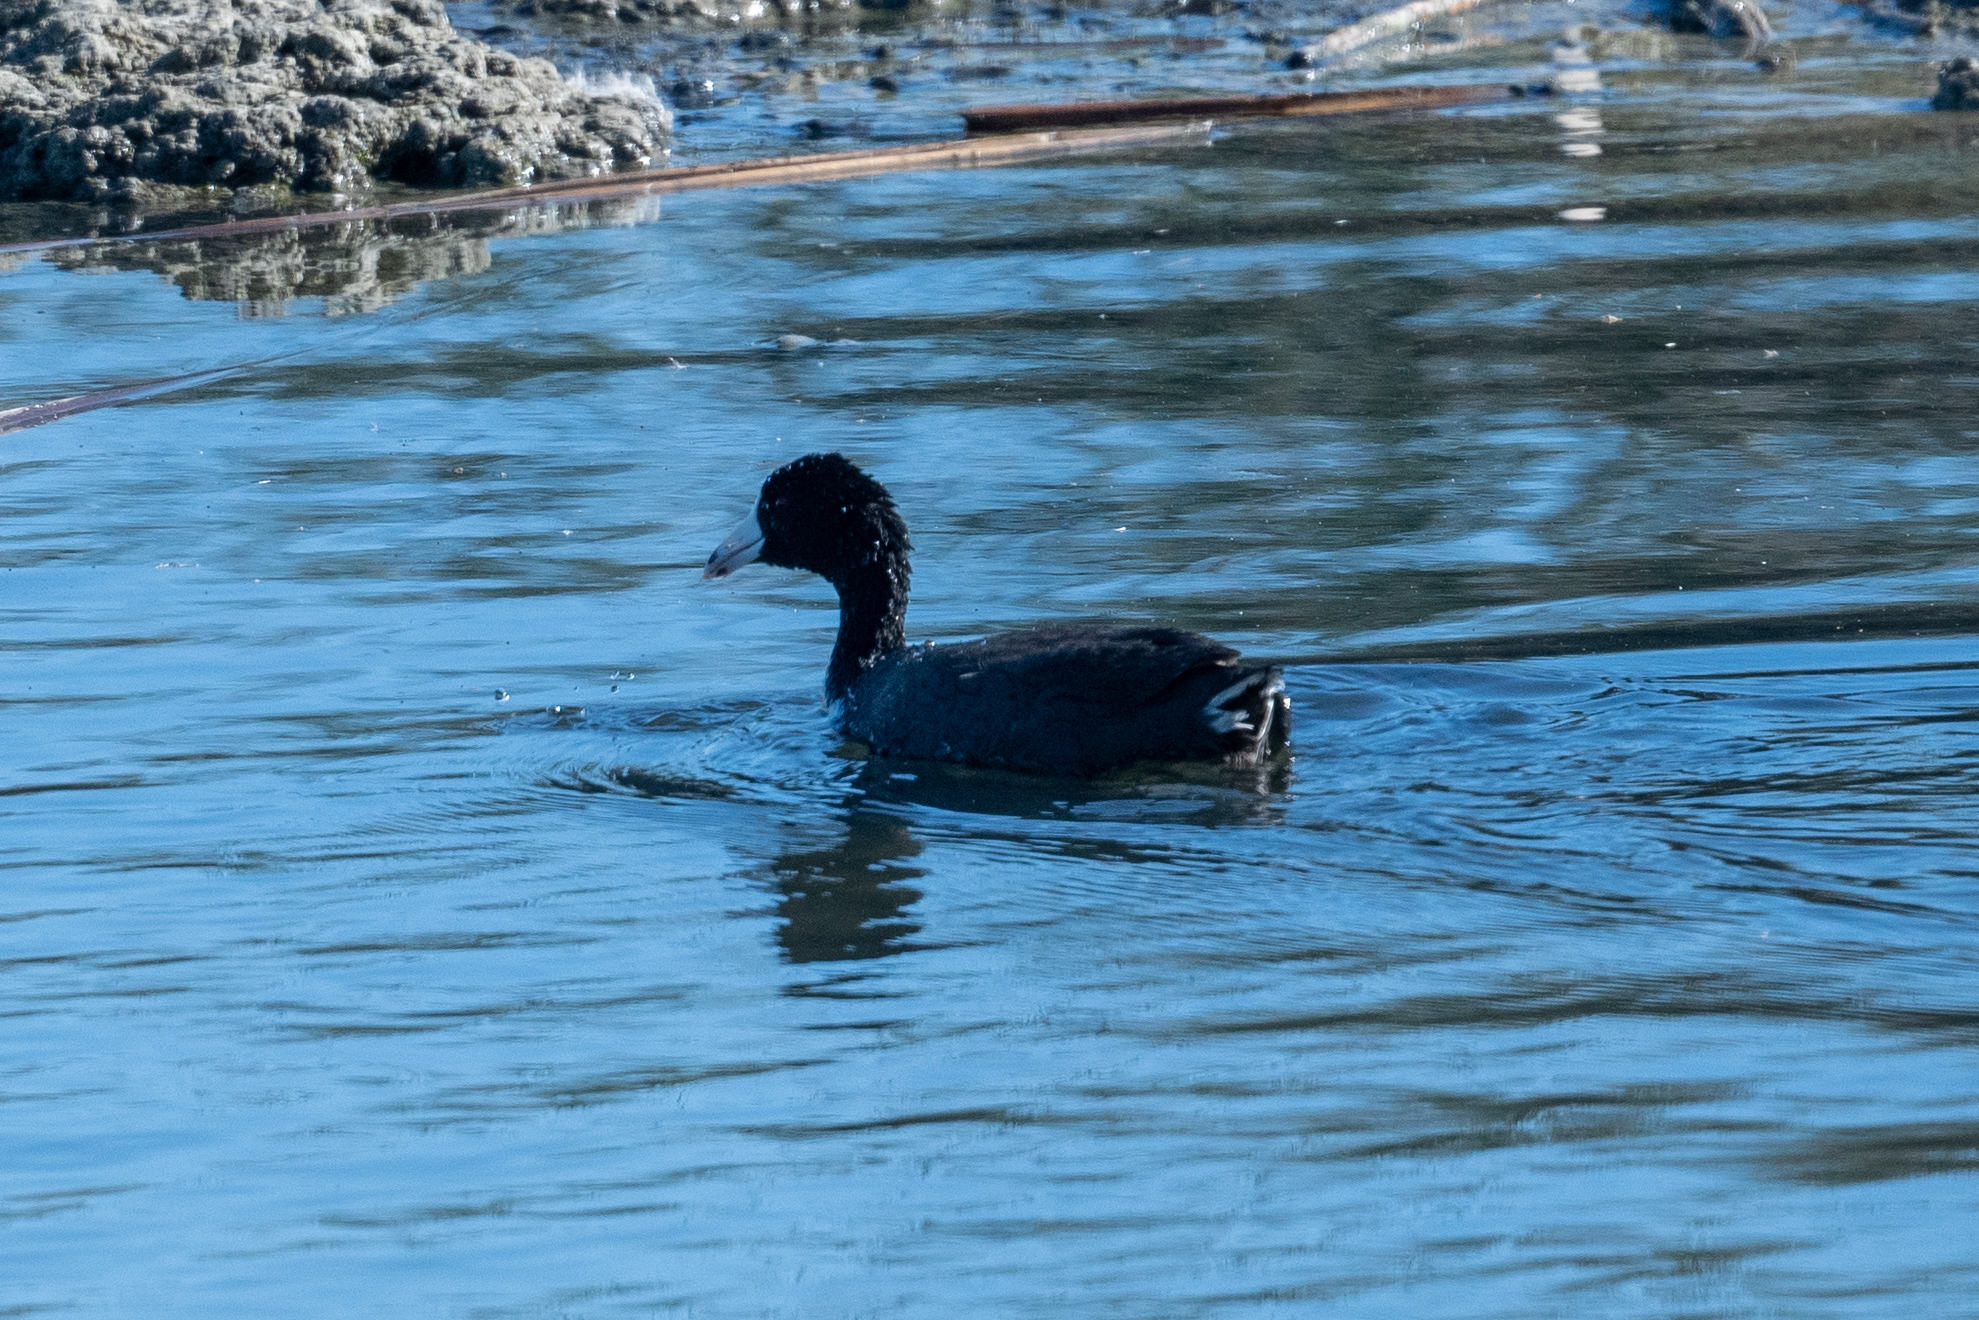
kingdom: Animalia
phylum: Chordata
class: Aves
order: Gruiformes
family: Rallidae
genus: Fulica
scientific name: Fulica americana
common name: American coot
